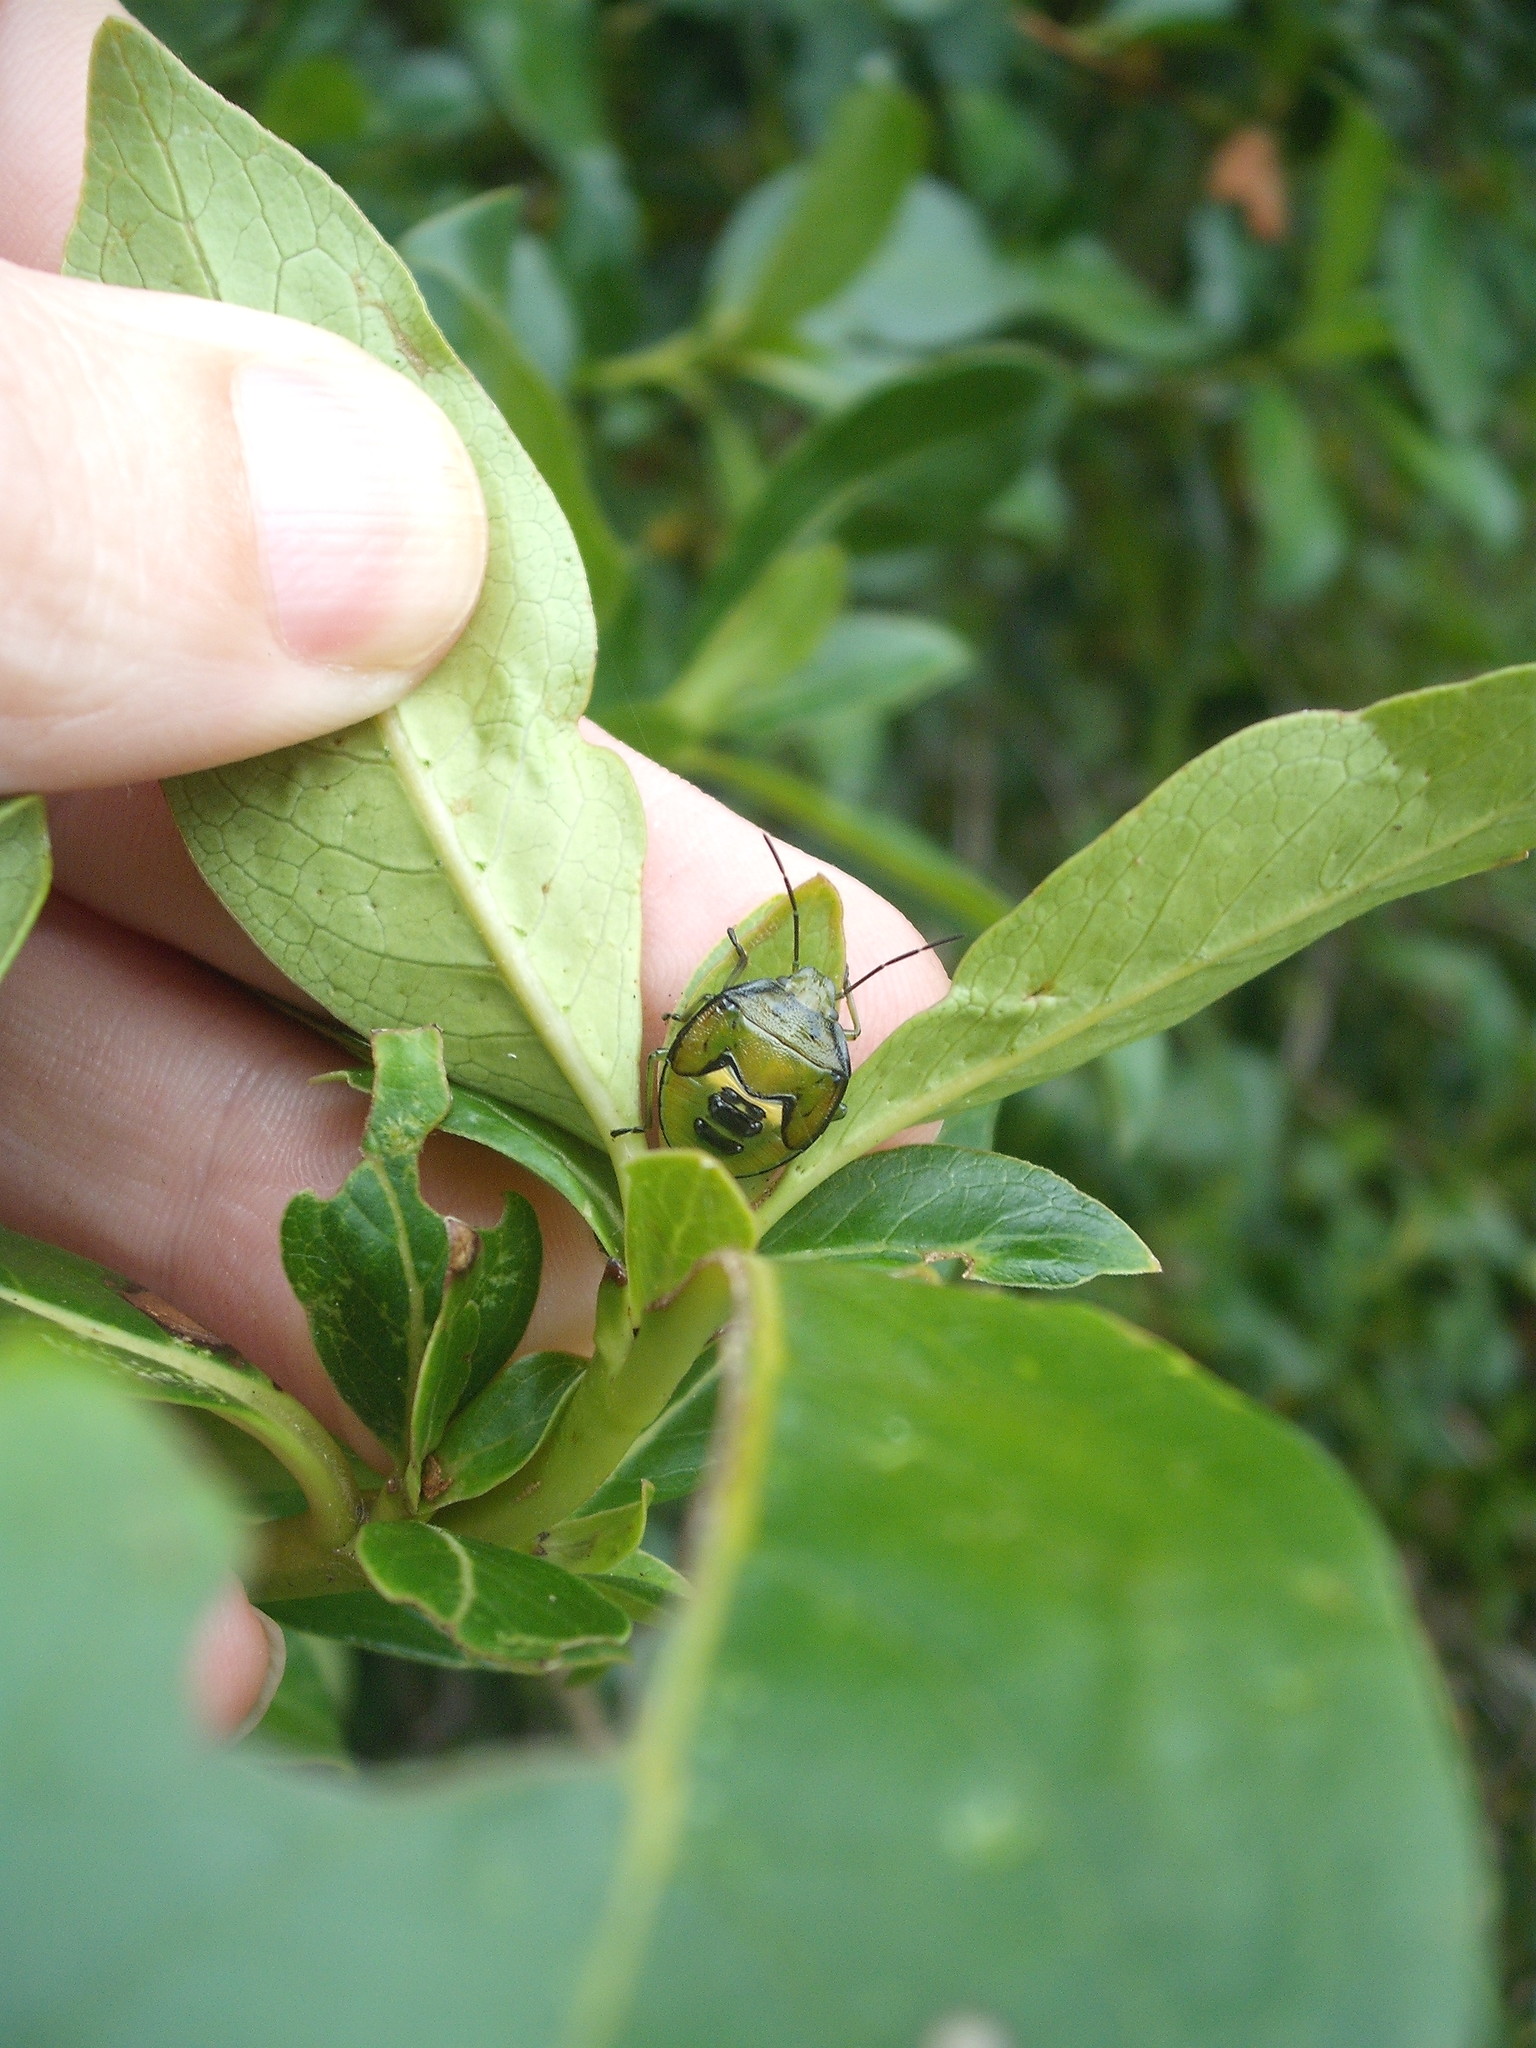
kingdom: Animalia
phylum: Arthropoda
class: Insecta
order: Hemiptera
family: Pentatomidae
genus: Glaucias
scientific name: Glaucias amyota
